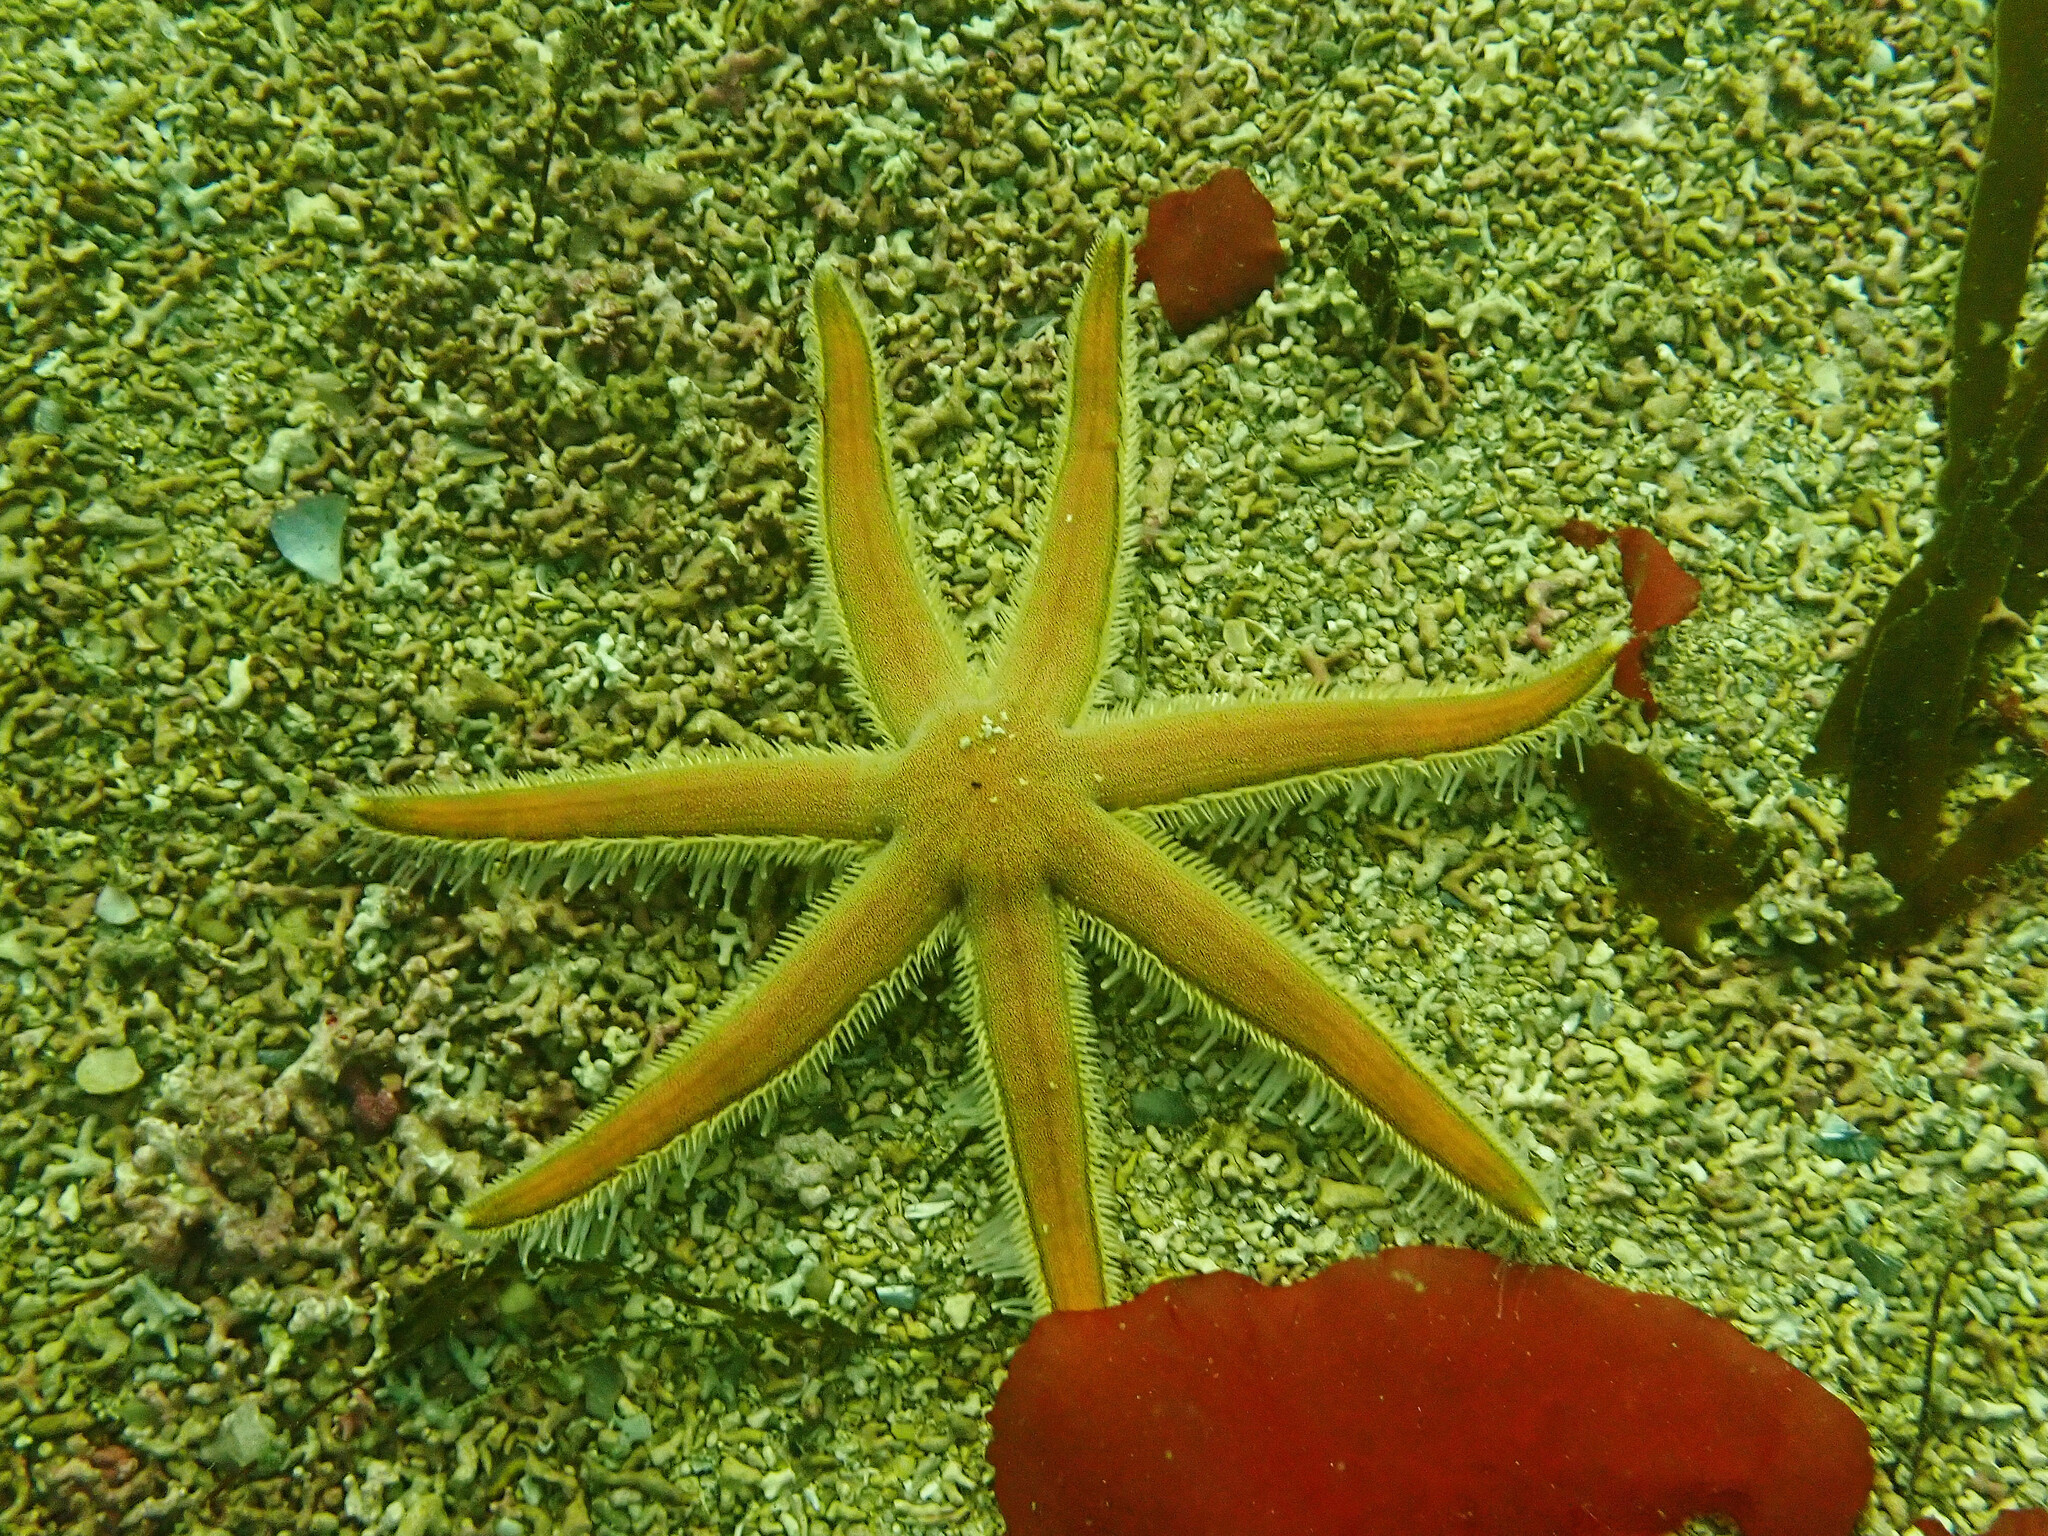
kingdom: Animalia
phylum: Echinodermata
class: Asteroidea
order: Paxillosida
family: Luidiidae
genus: Luidia
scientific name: Luidia ciliaris
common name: Seven-armed starfish
